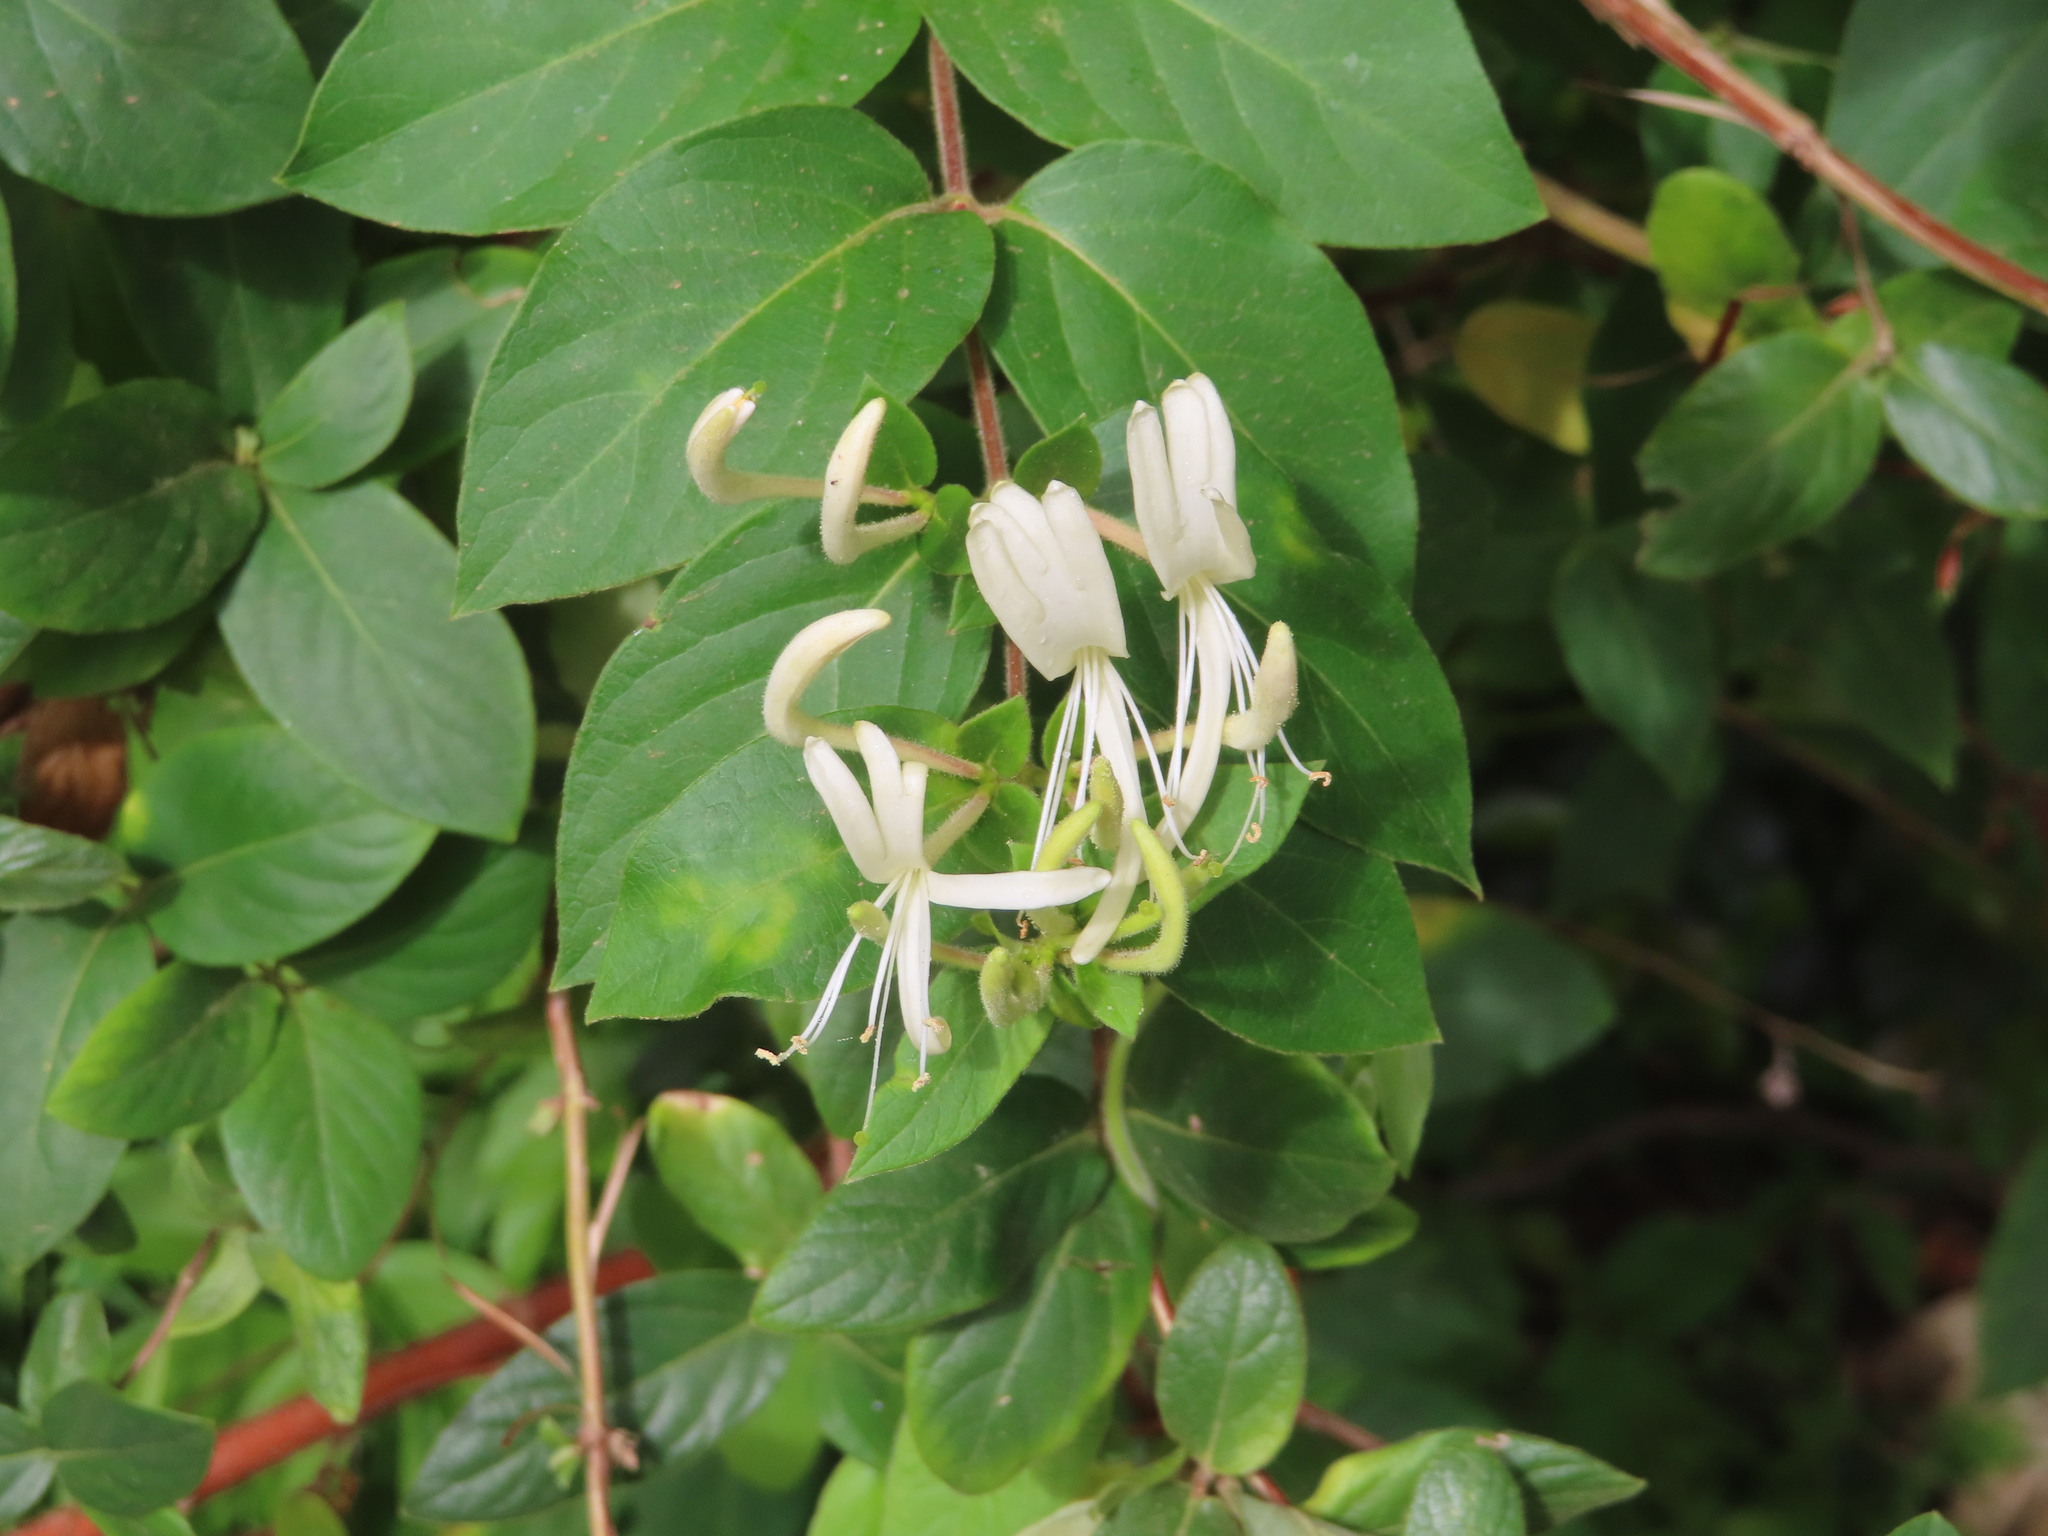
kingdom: Plantae
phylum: Tracheophyta
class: Magnoliopsida
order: Dipsacales
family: Caprifoliaceae
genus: Lonicera
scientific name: Lonicera japonica
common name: Japanese honeysuckle
